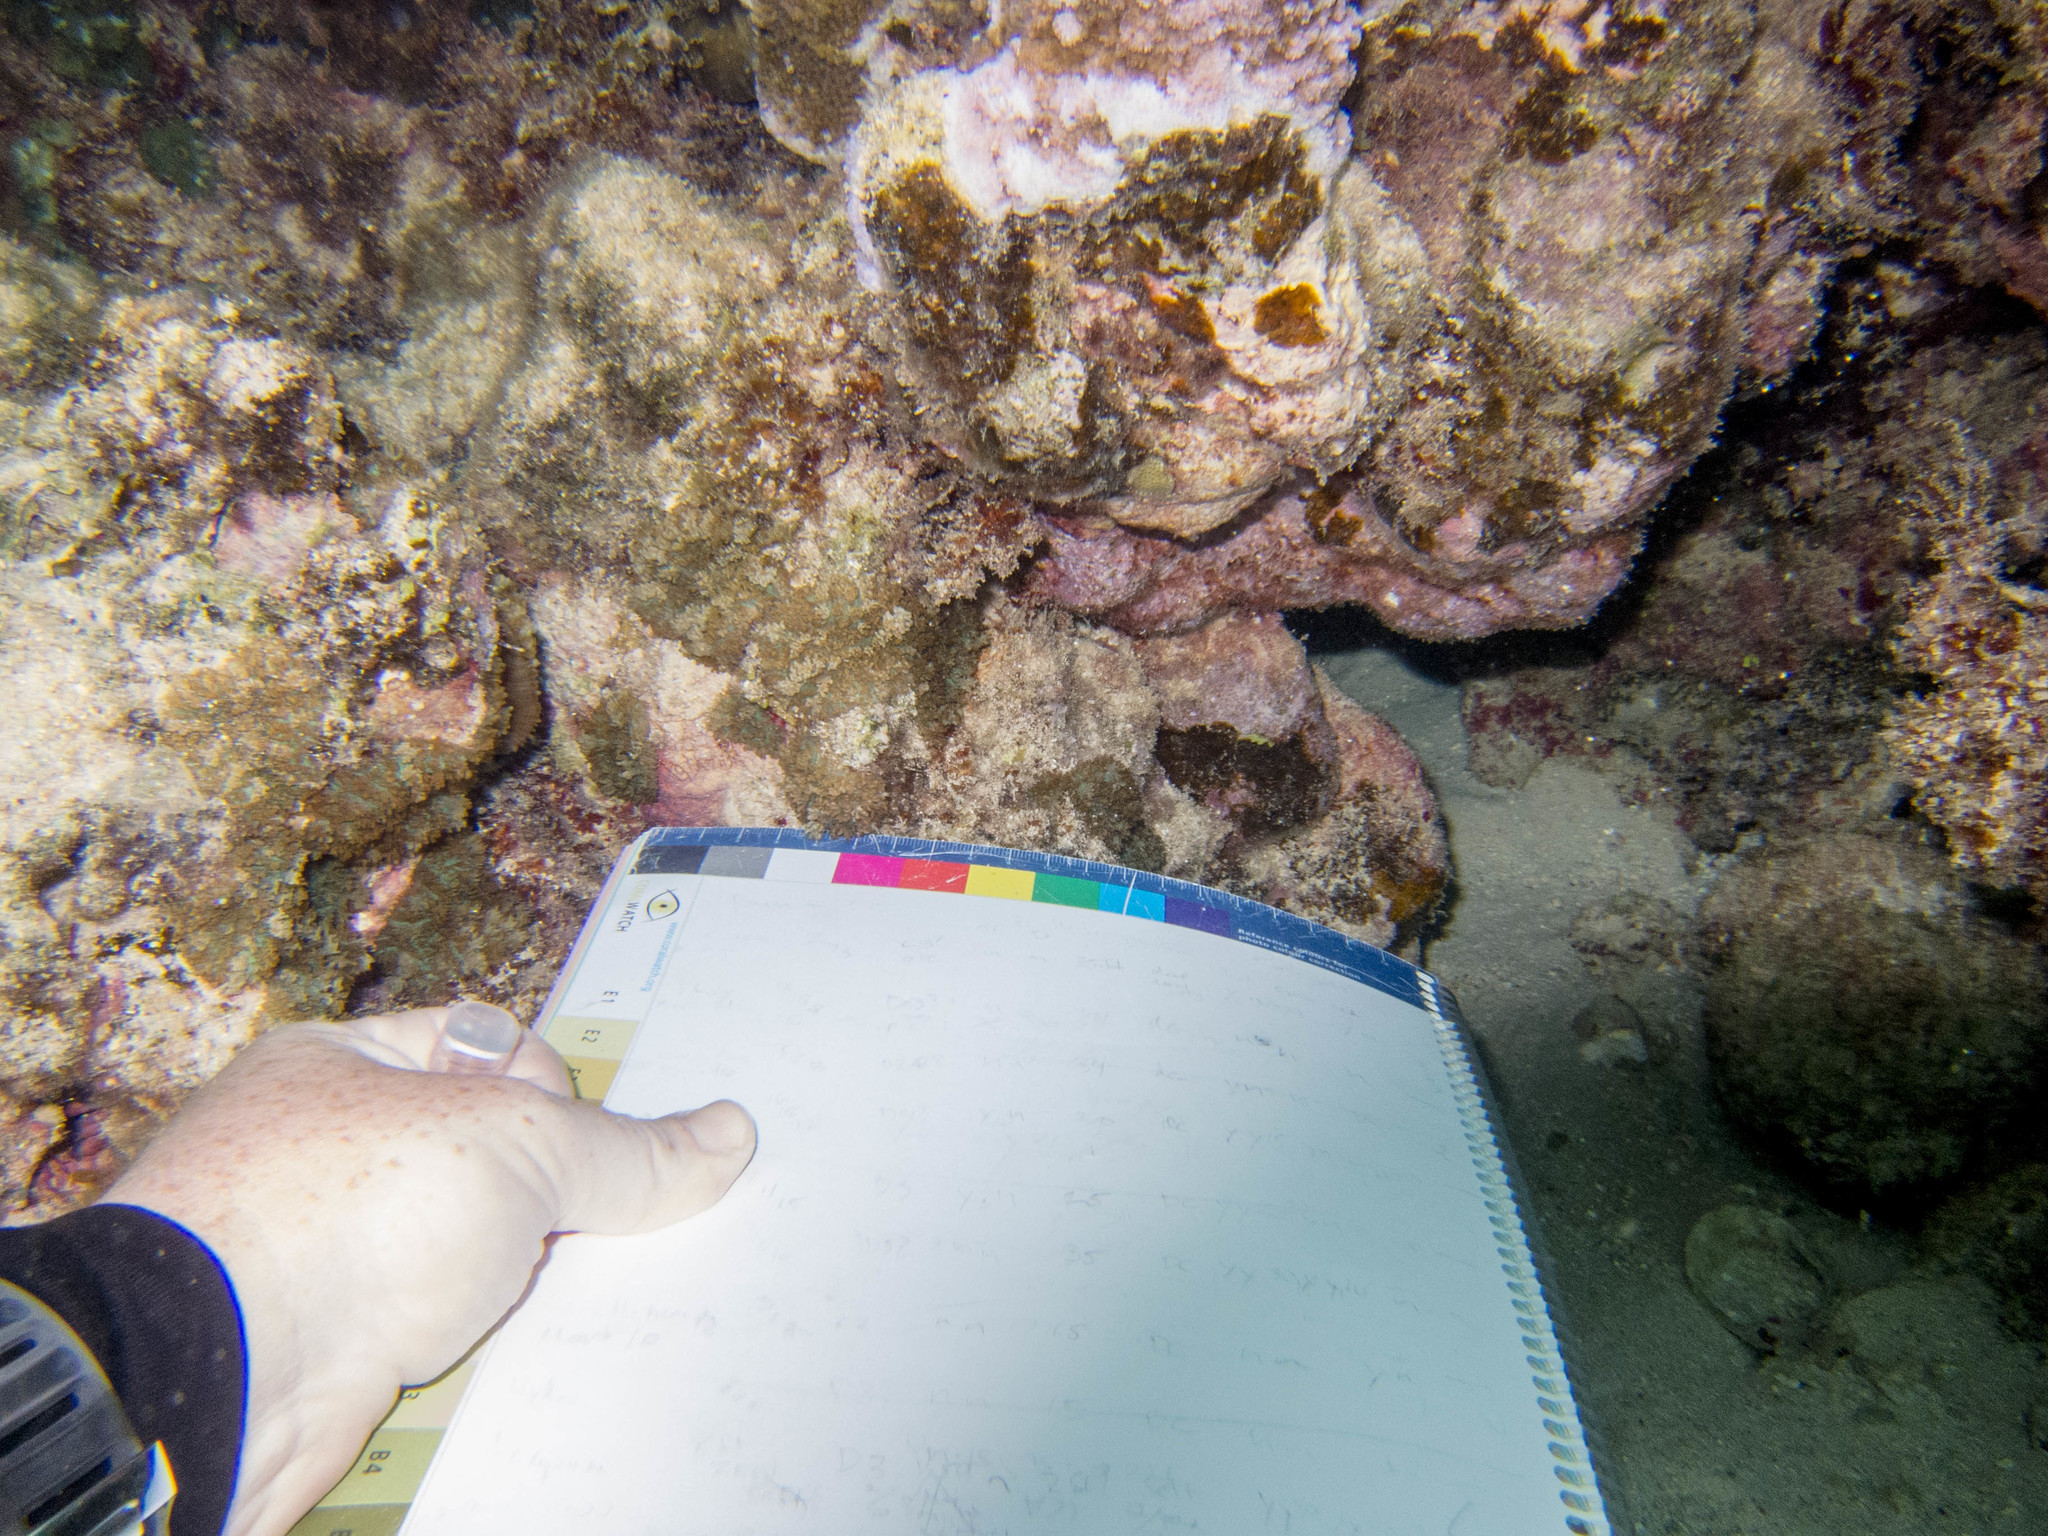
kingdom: Animalia
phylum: Cnidaria
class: Anthozoa
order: Corallimorpharia
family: Discosomidae
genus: Rhodactis
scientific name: Rhodactis rhodostoma
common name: Red-mouth mushroom anemone
